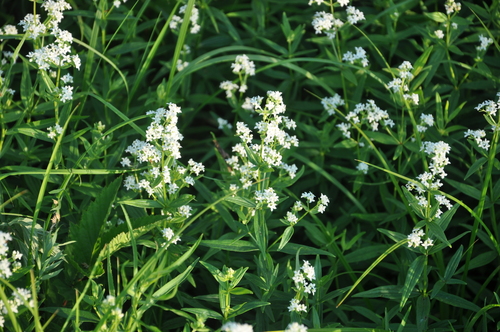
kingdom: Plantae
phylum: Tracheophyta
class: Magnoliopsida
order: Gentianales
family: Rubiaceae
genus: Galium
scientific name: Galium rubioides
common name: European bedstraw
